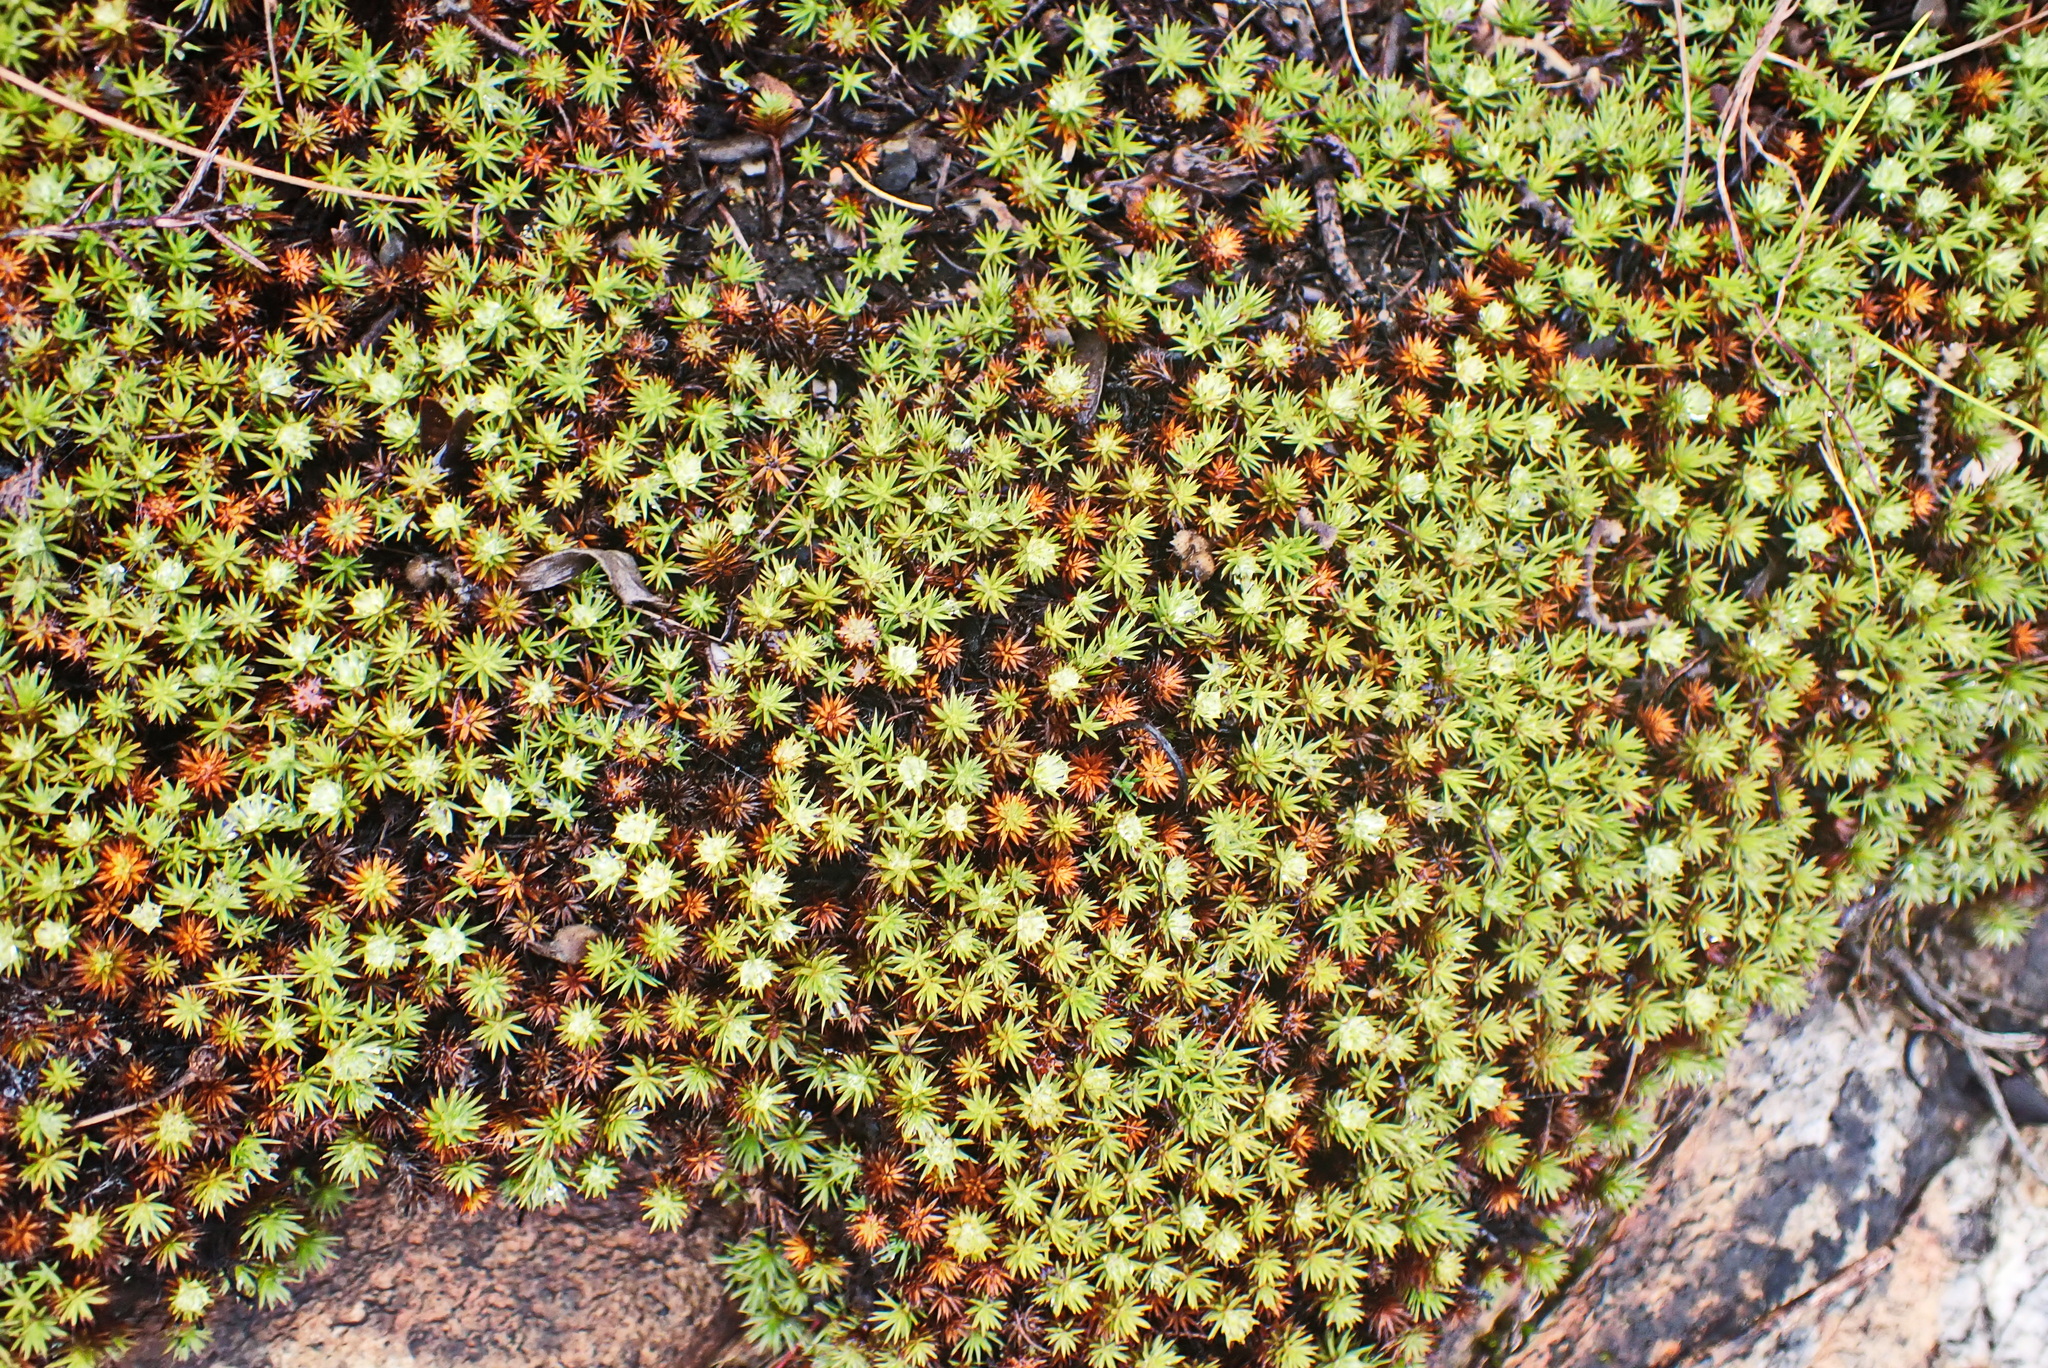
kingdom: Plantae
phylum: Bryophyta
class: Polytrichopsida
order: Polytrichales
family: Polytrichaceae
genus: Polytrichum
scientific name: Polytrichum juniperinum
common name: Juniper haircap moss
